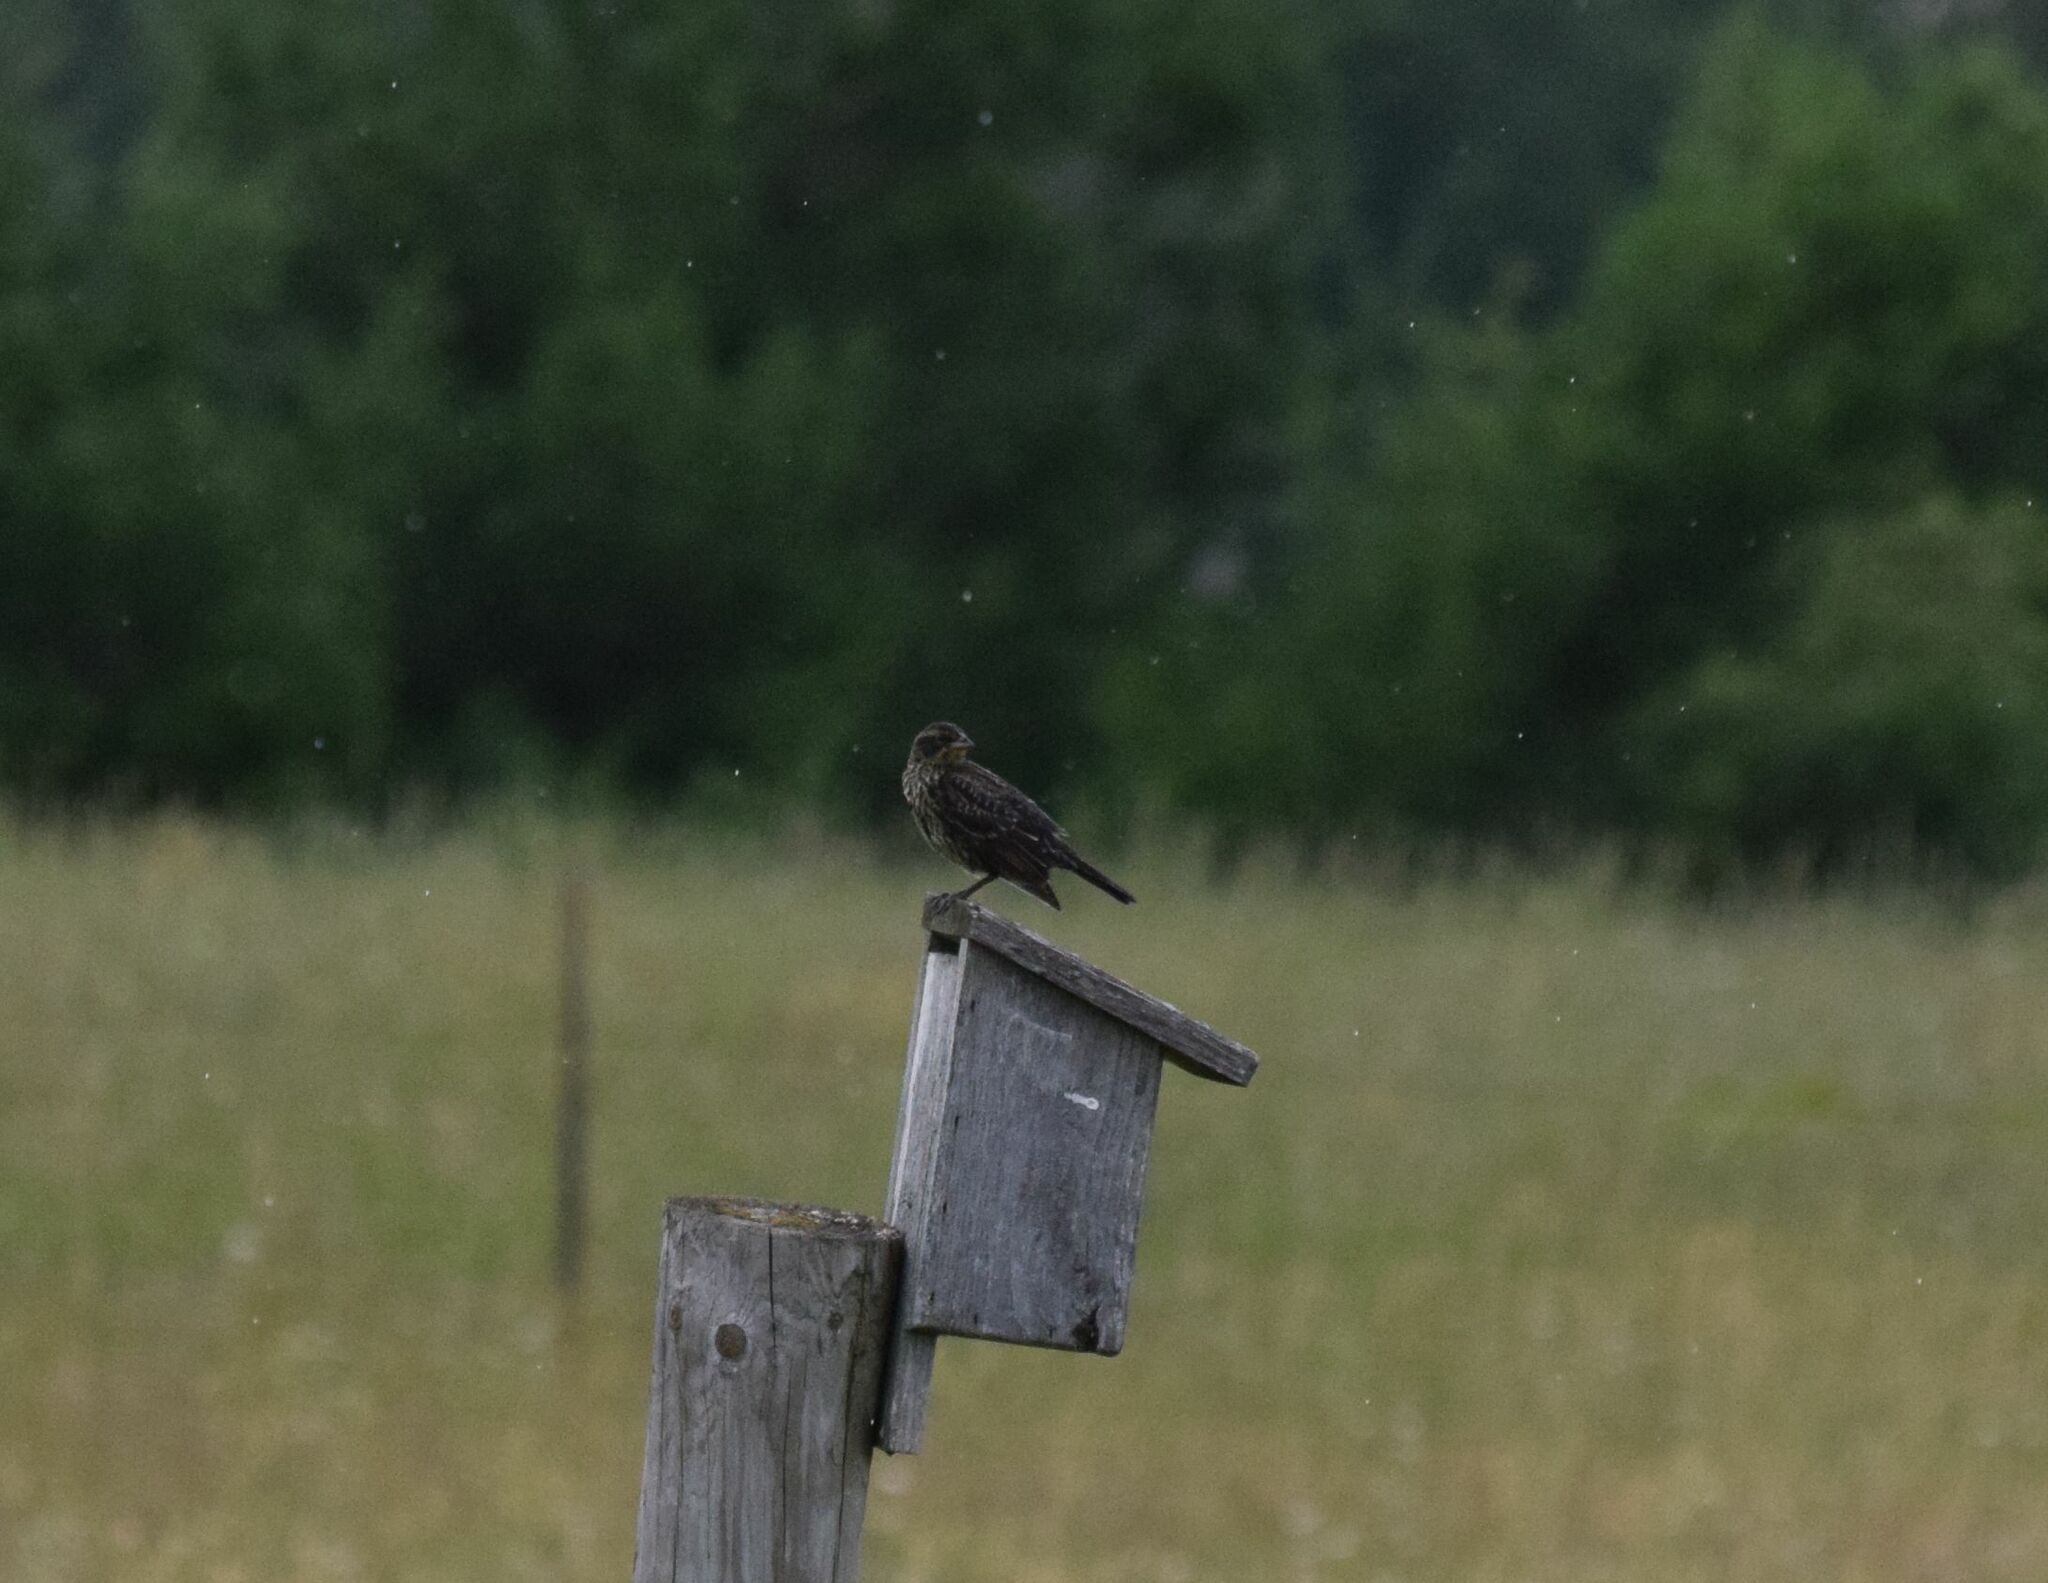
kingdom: Animalia
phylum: Chordata
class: Aves
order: Passeriformes
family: Icteridae
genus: Agelaius
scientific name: Agelaius phoeniceus
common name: Red-winged blackbird
